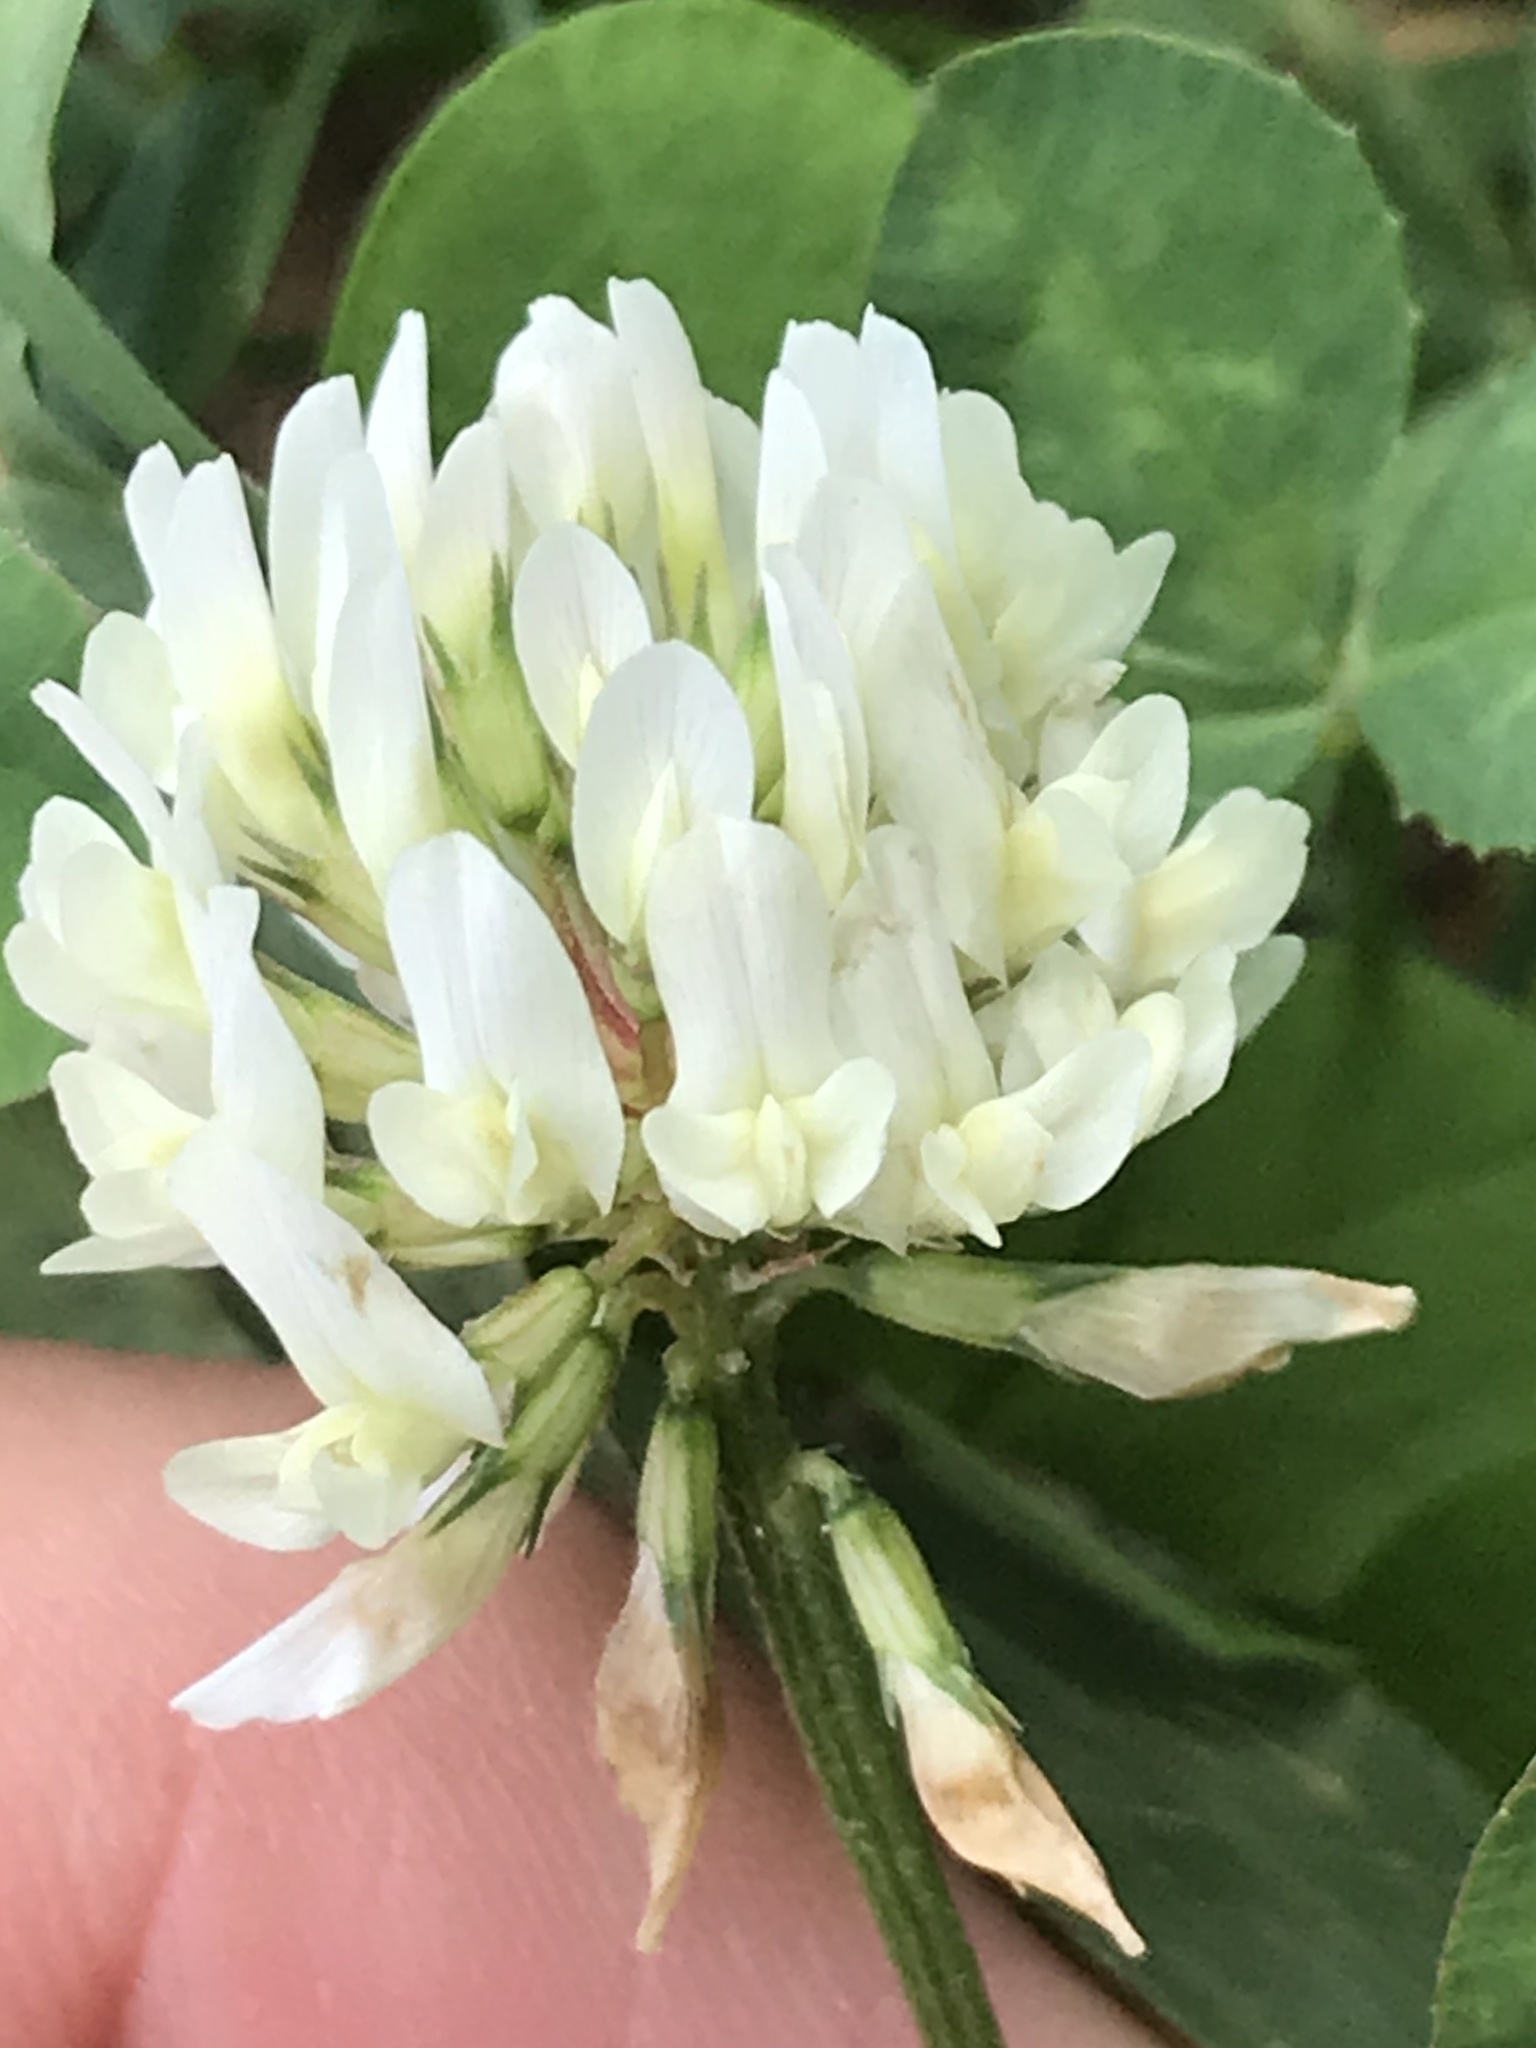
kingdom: Plantae
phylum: Tracheophyta
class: Magnoliopsida
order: Fabales
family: Fabaceae
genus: Trifolium
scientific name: Trifolium repens
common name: White clover
